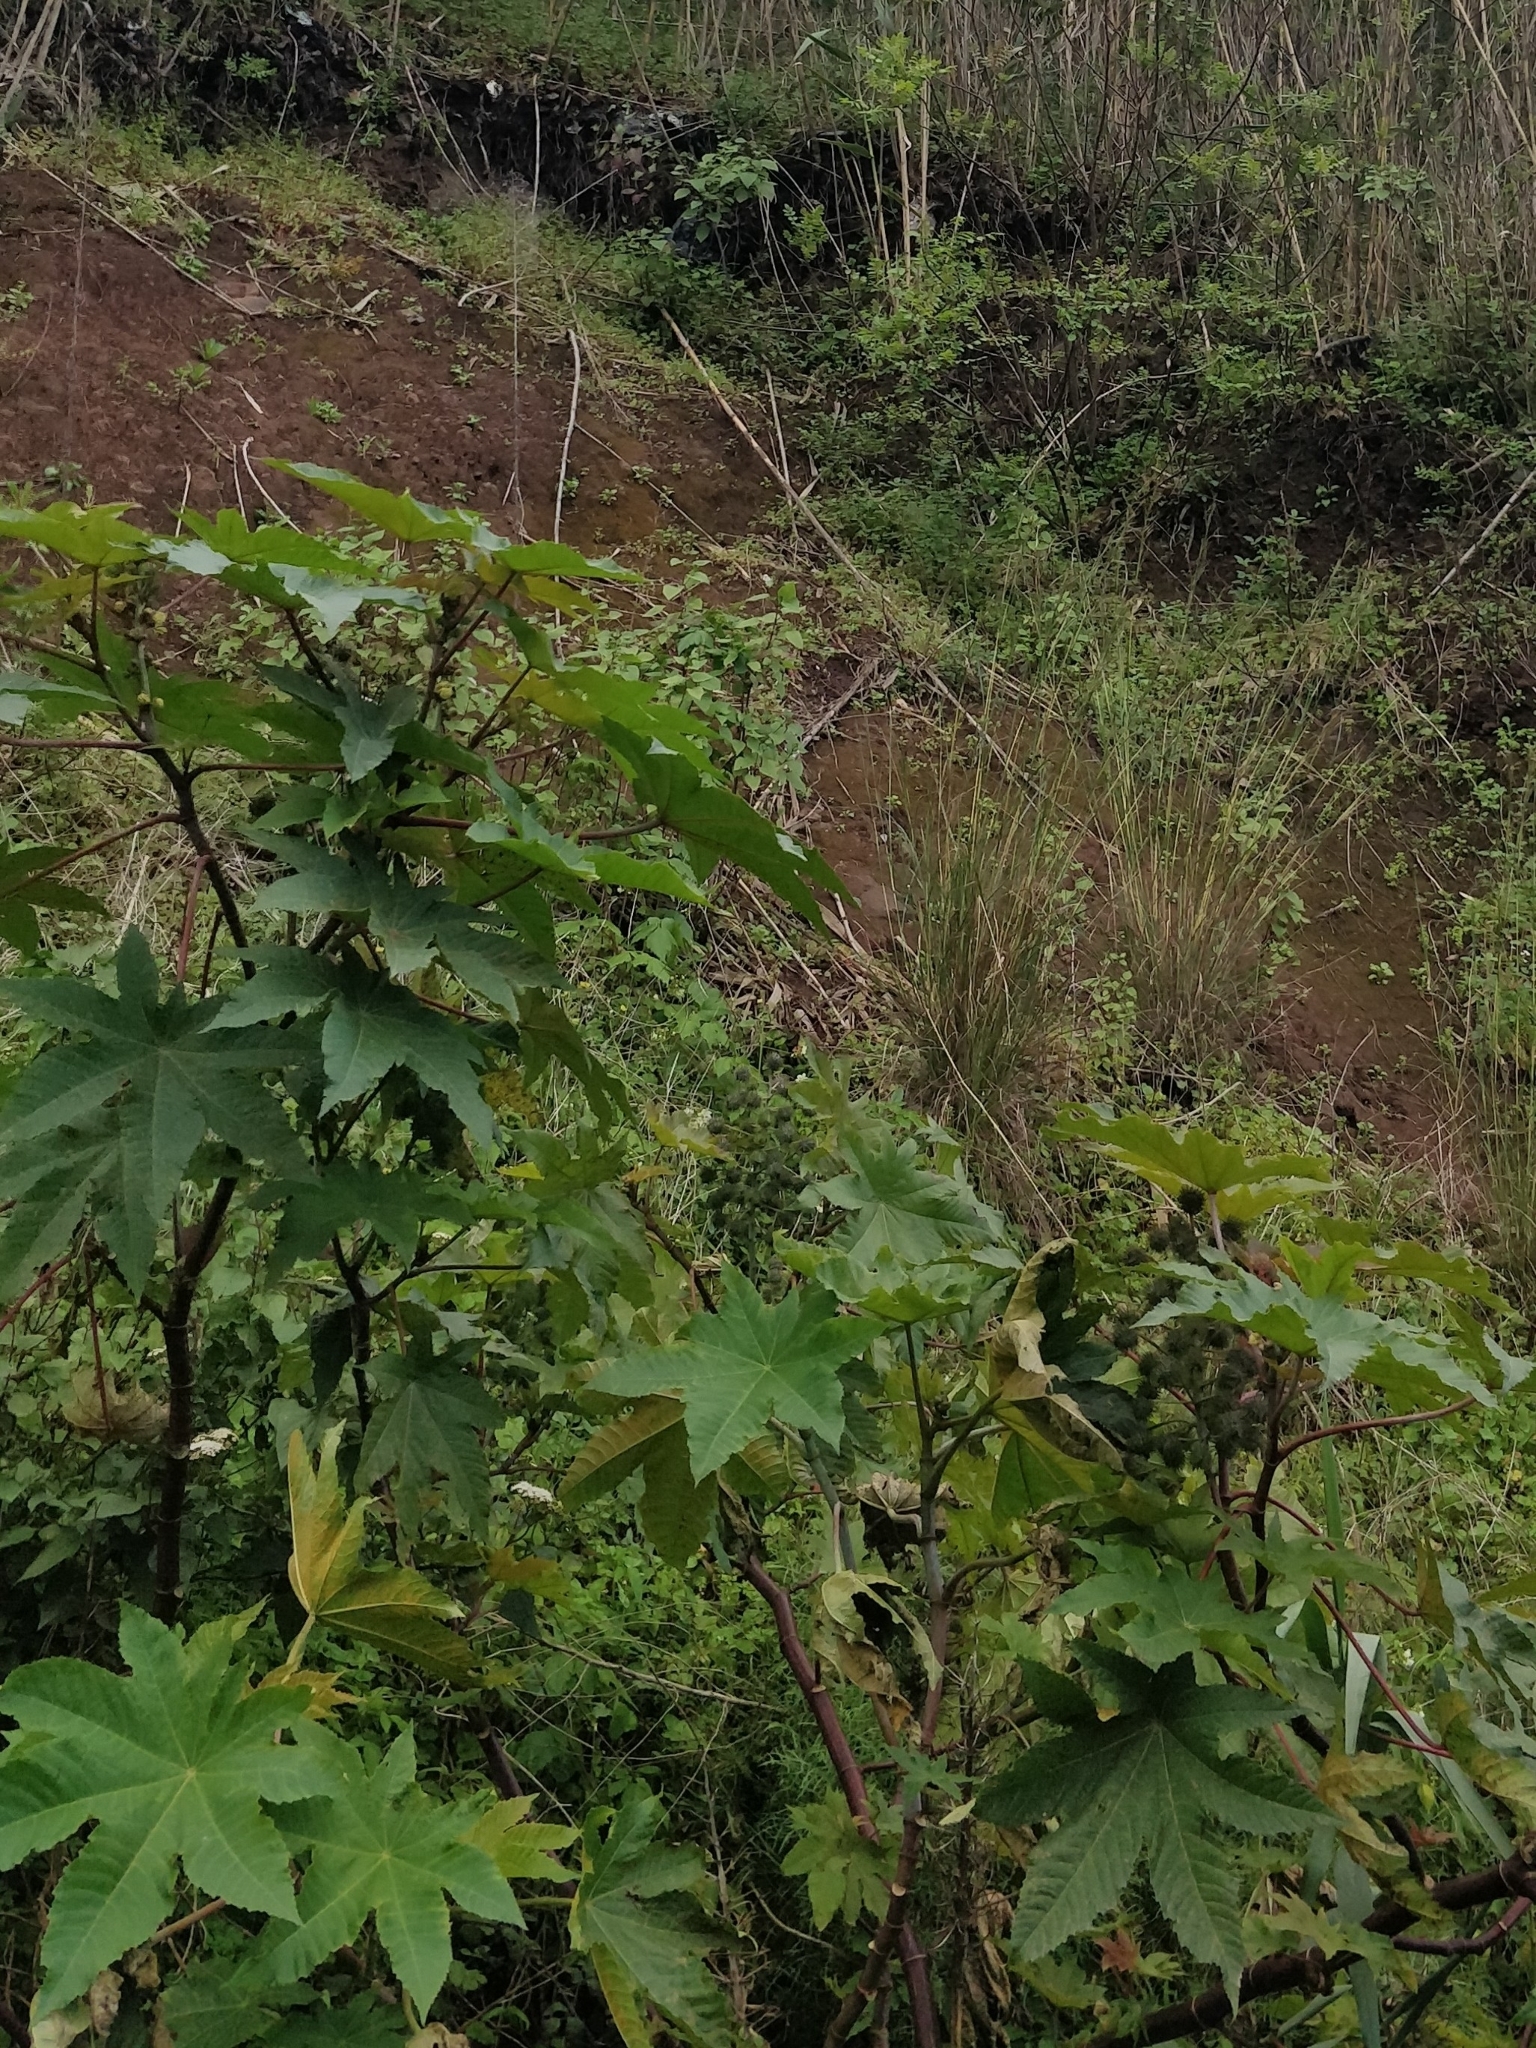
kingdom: Plantae
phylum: Tracheophyta
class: Magnoliopsida
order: Malpighiales
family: Euphorbiaceae
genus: Ricinus
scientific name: Ricinus communis
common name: Castor-oil-plant
